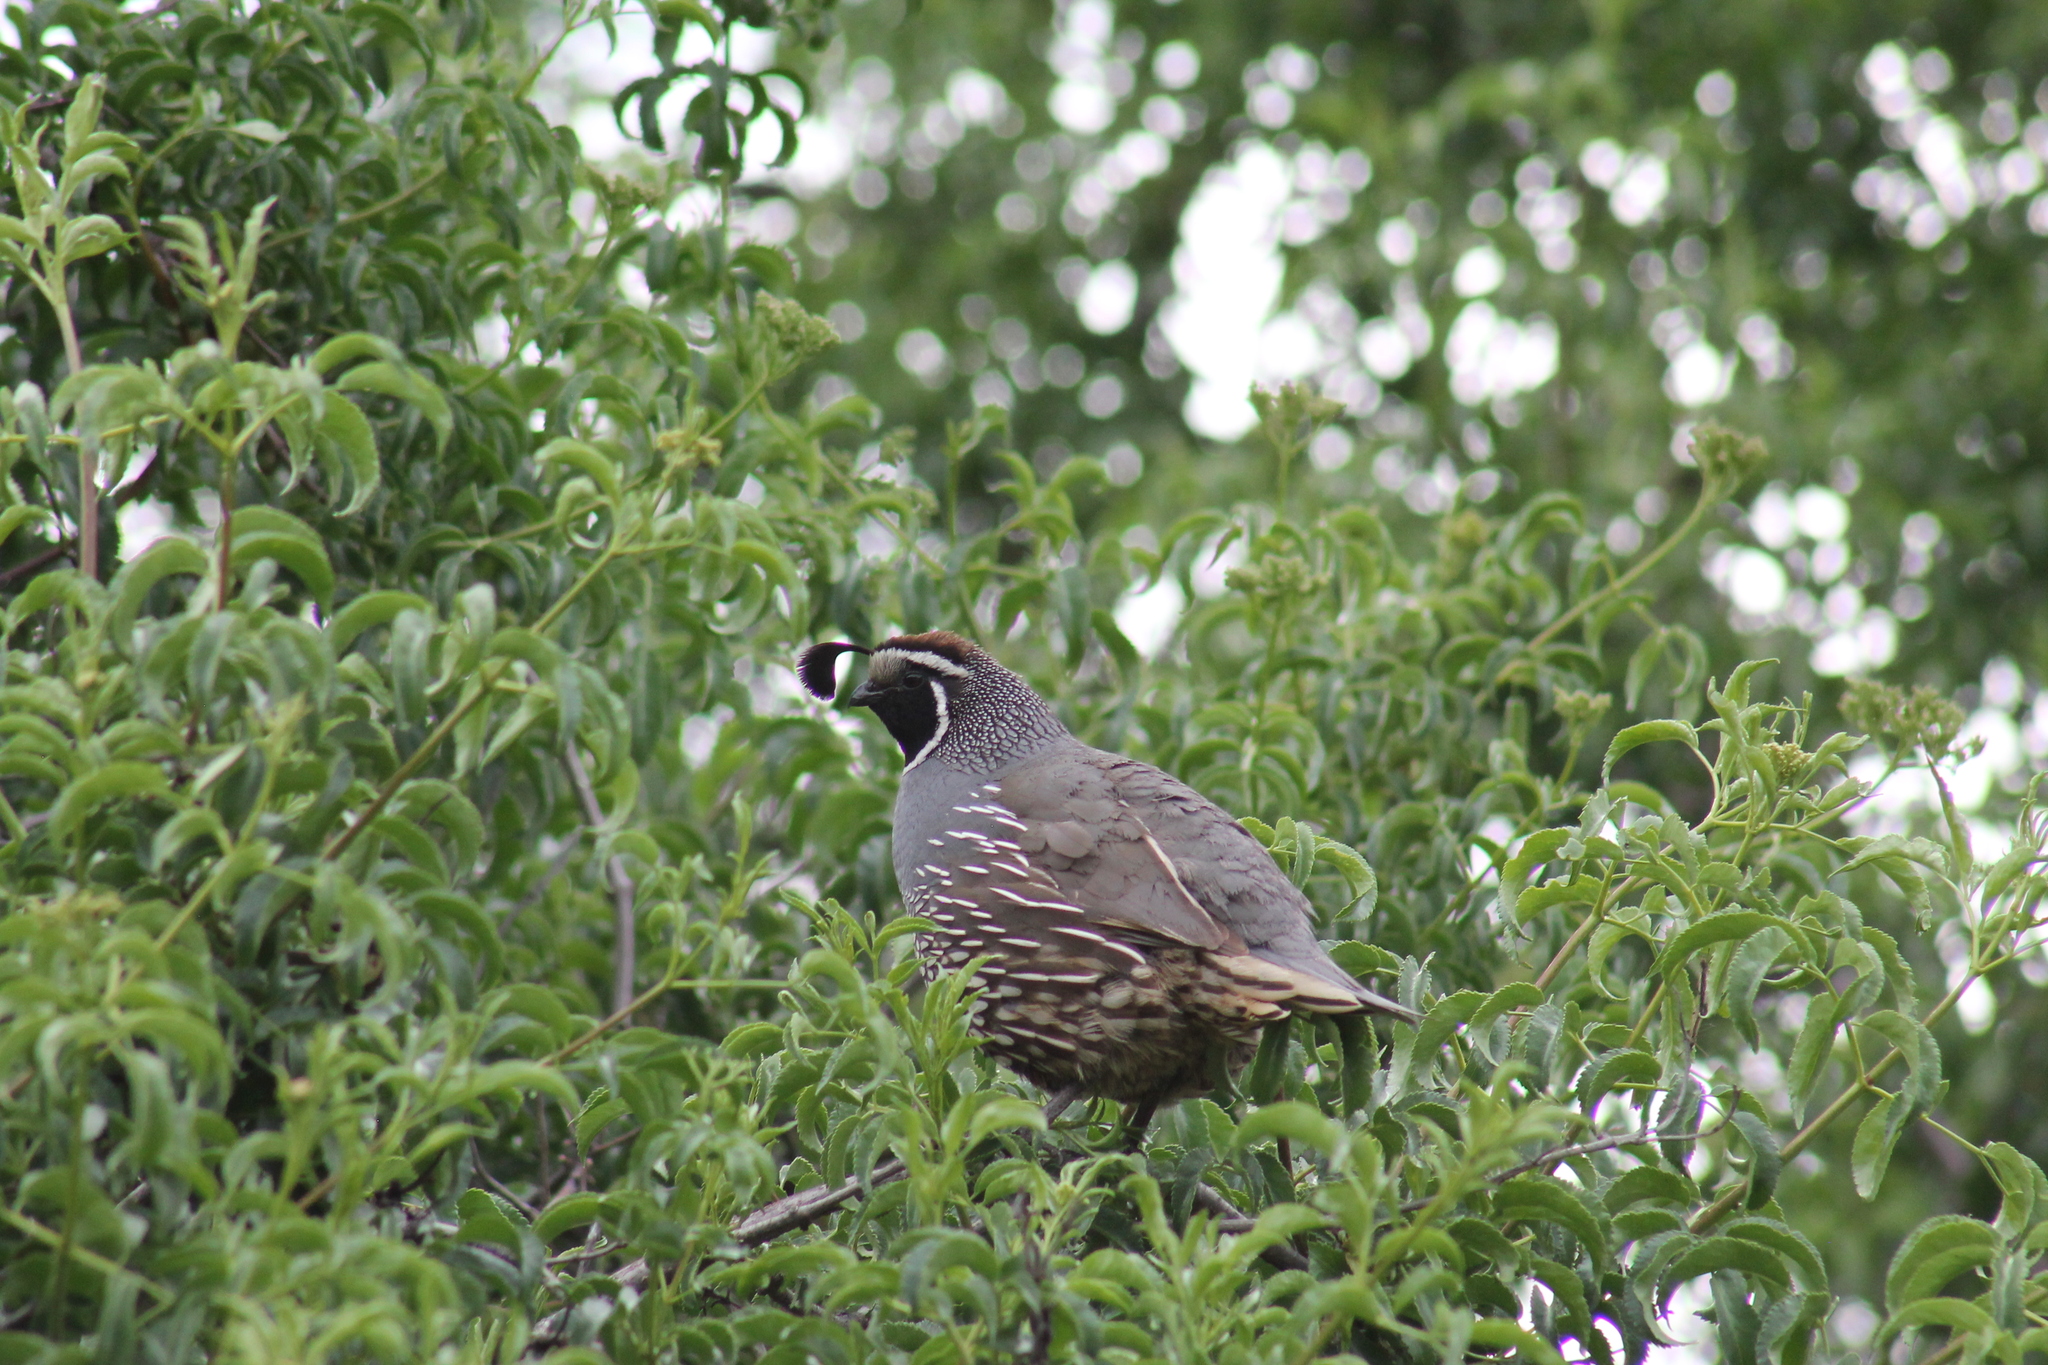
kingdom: Animalia
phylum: Chordata
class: Aves
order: Galliformes
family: Odontophoridae
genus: Callipepla
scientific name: Callipepla californica
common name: California quail
